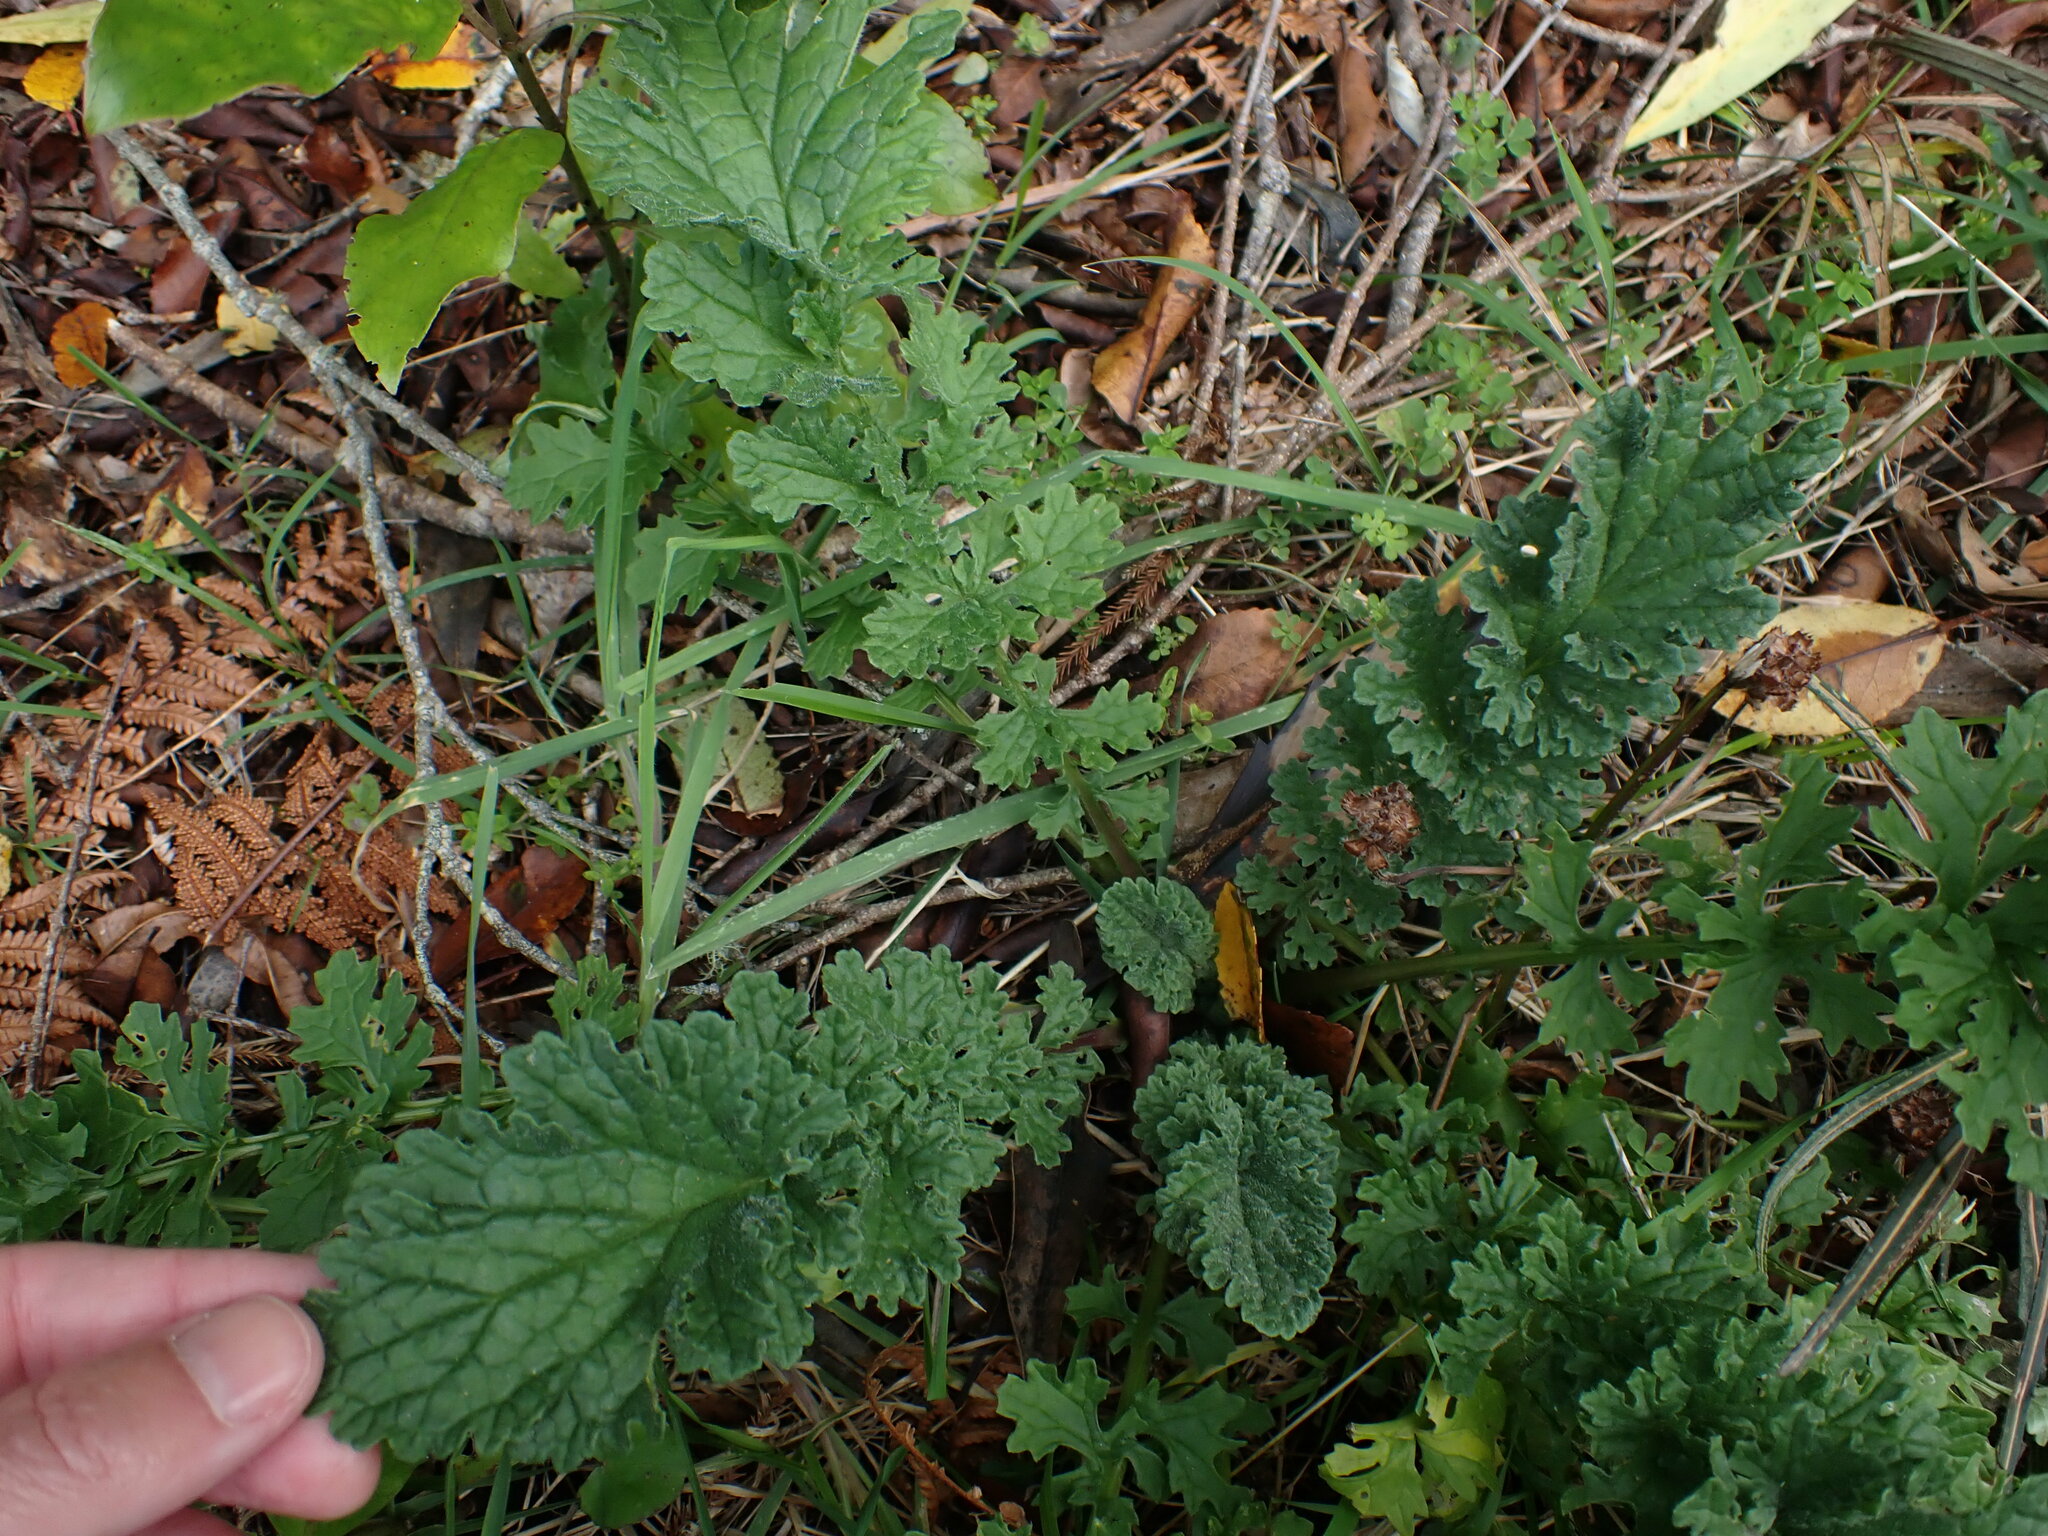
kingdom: Plantae
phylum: Tracheophyta
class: Magnoliopsida
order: Asterales
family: Asteraceae
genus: Jacobaea
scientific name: Jacobaea vulgaris
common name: Stinking willie
